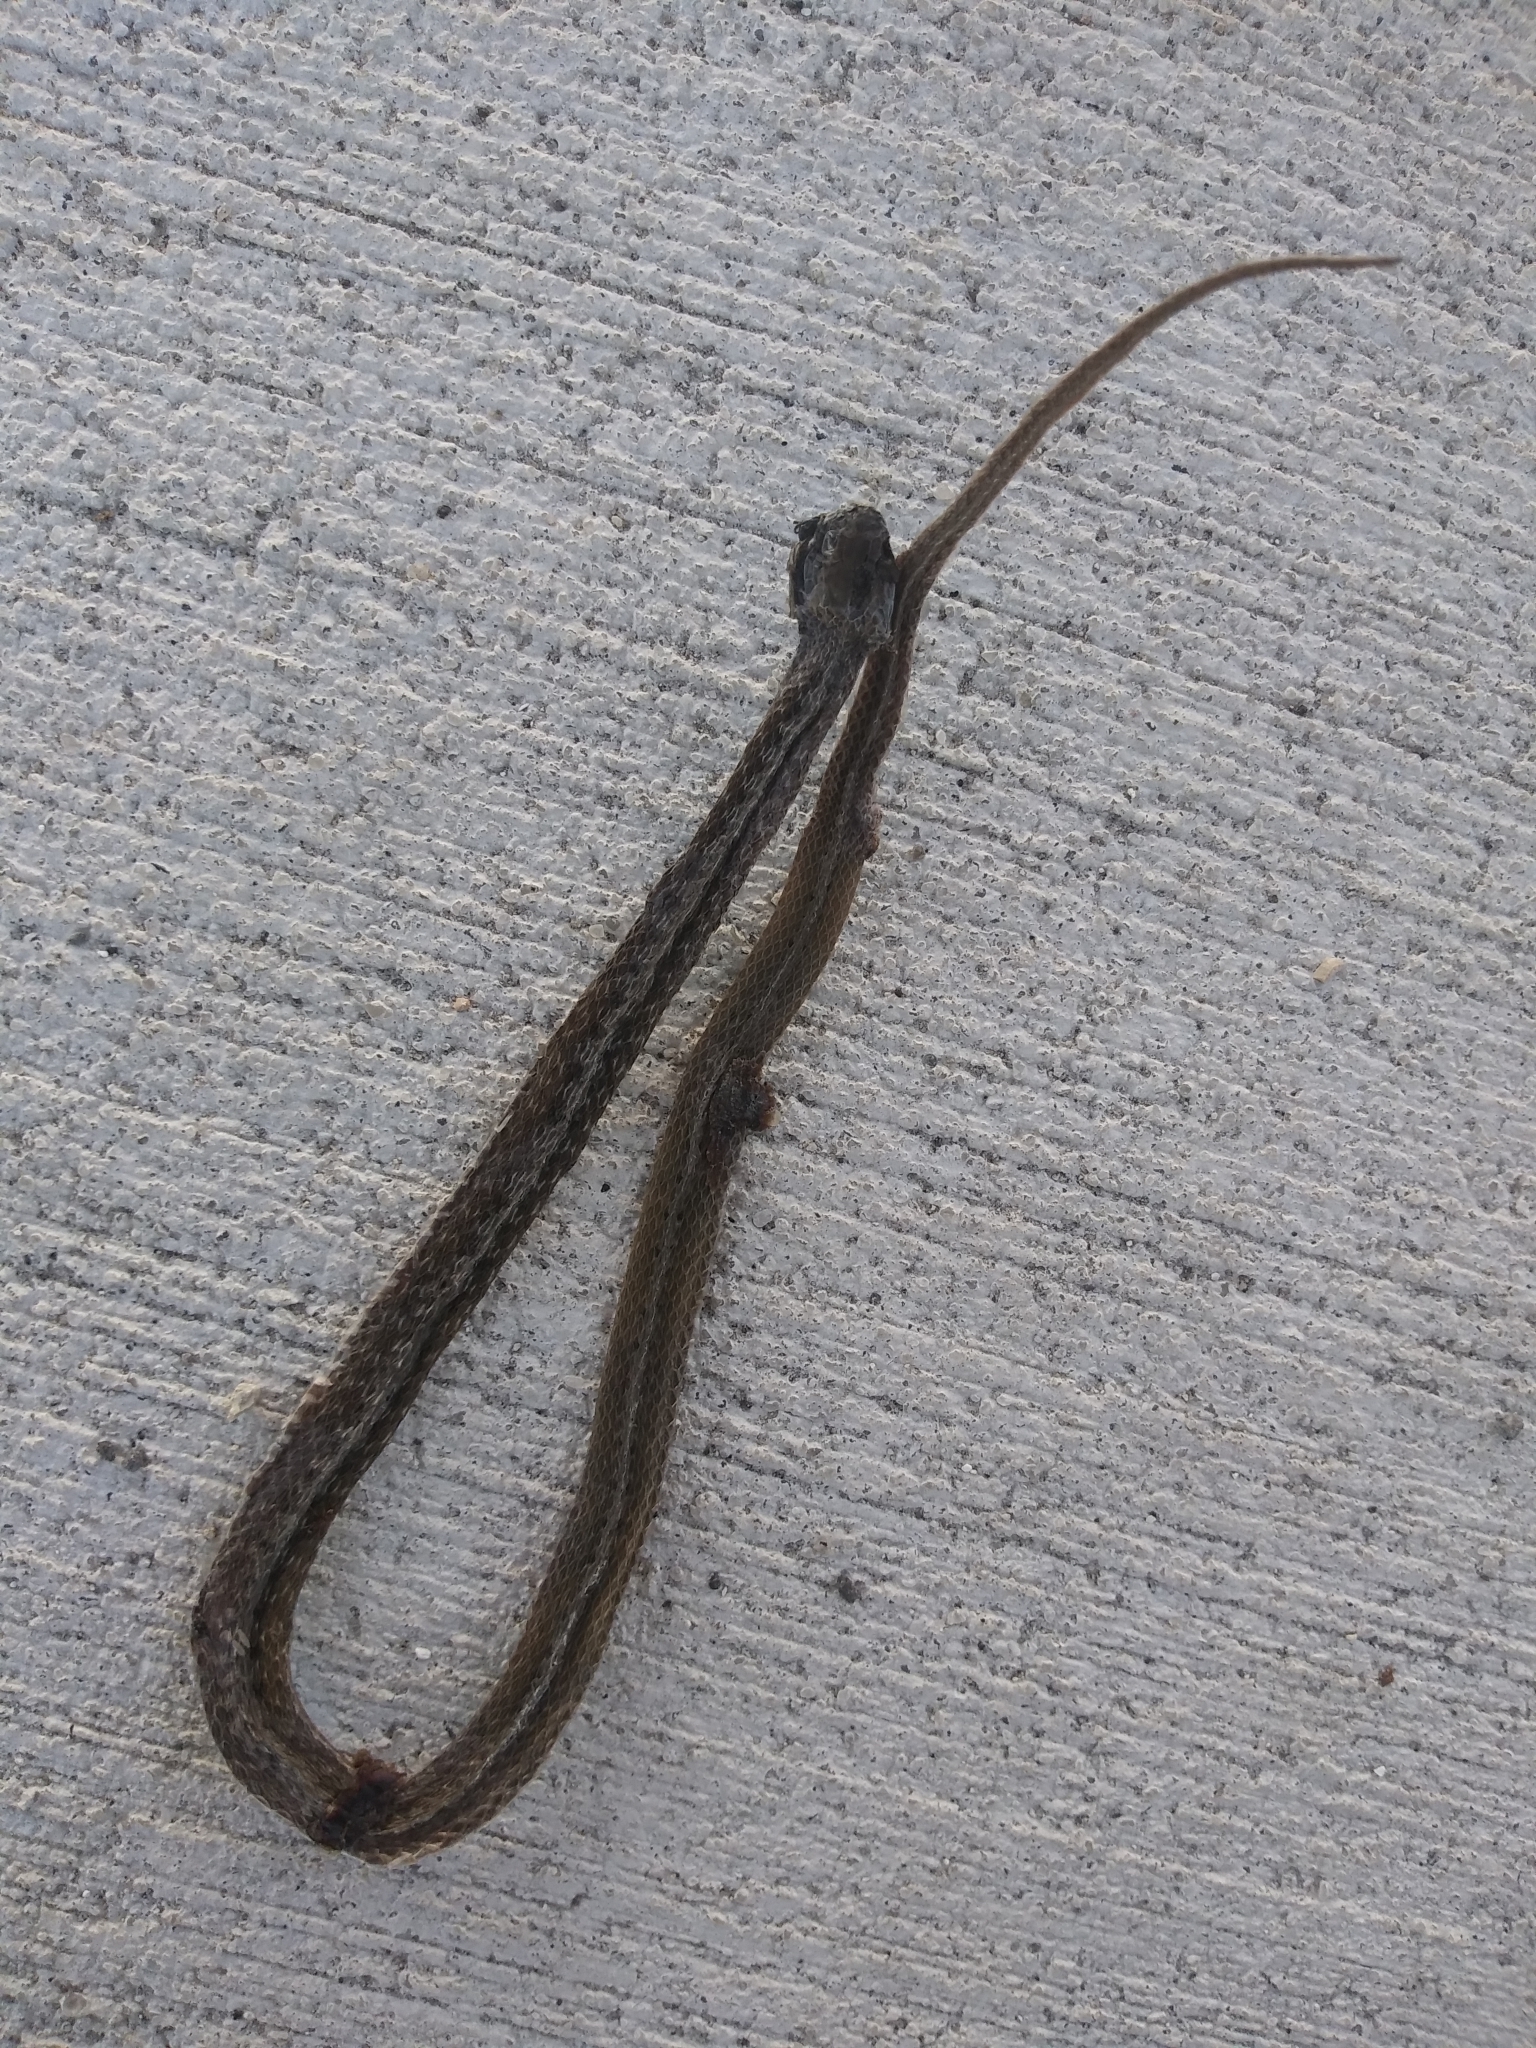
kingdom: Animalia
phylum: Chordata
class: Squamata
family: Colubridae
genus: Storeria
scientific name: Storeria victa
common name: Florida brown snake
